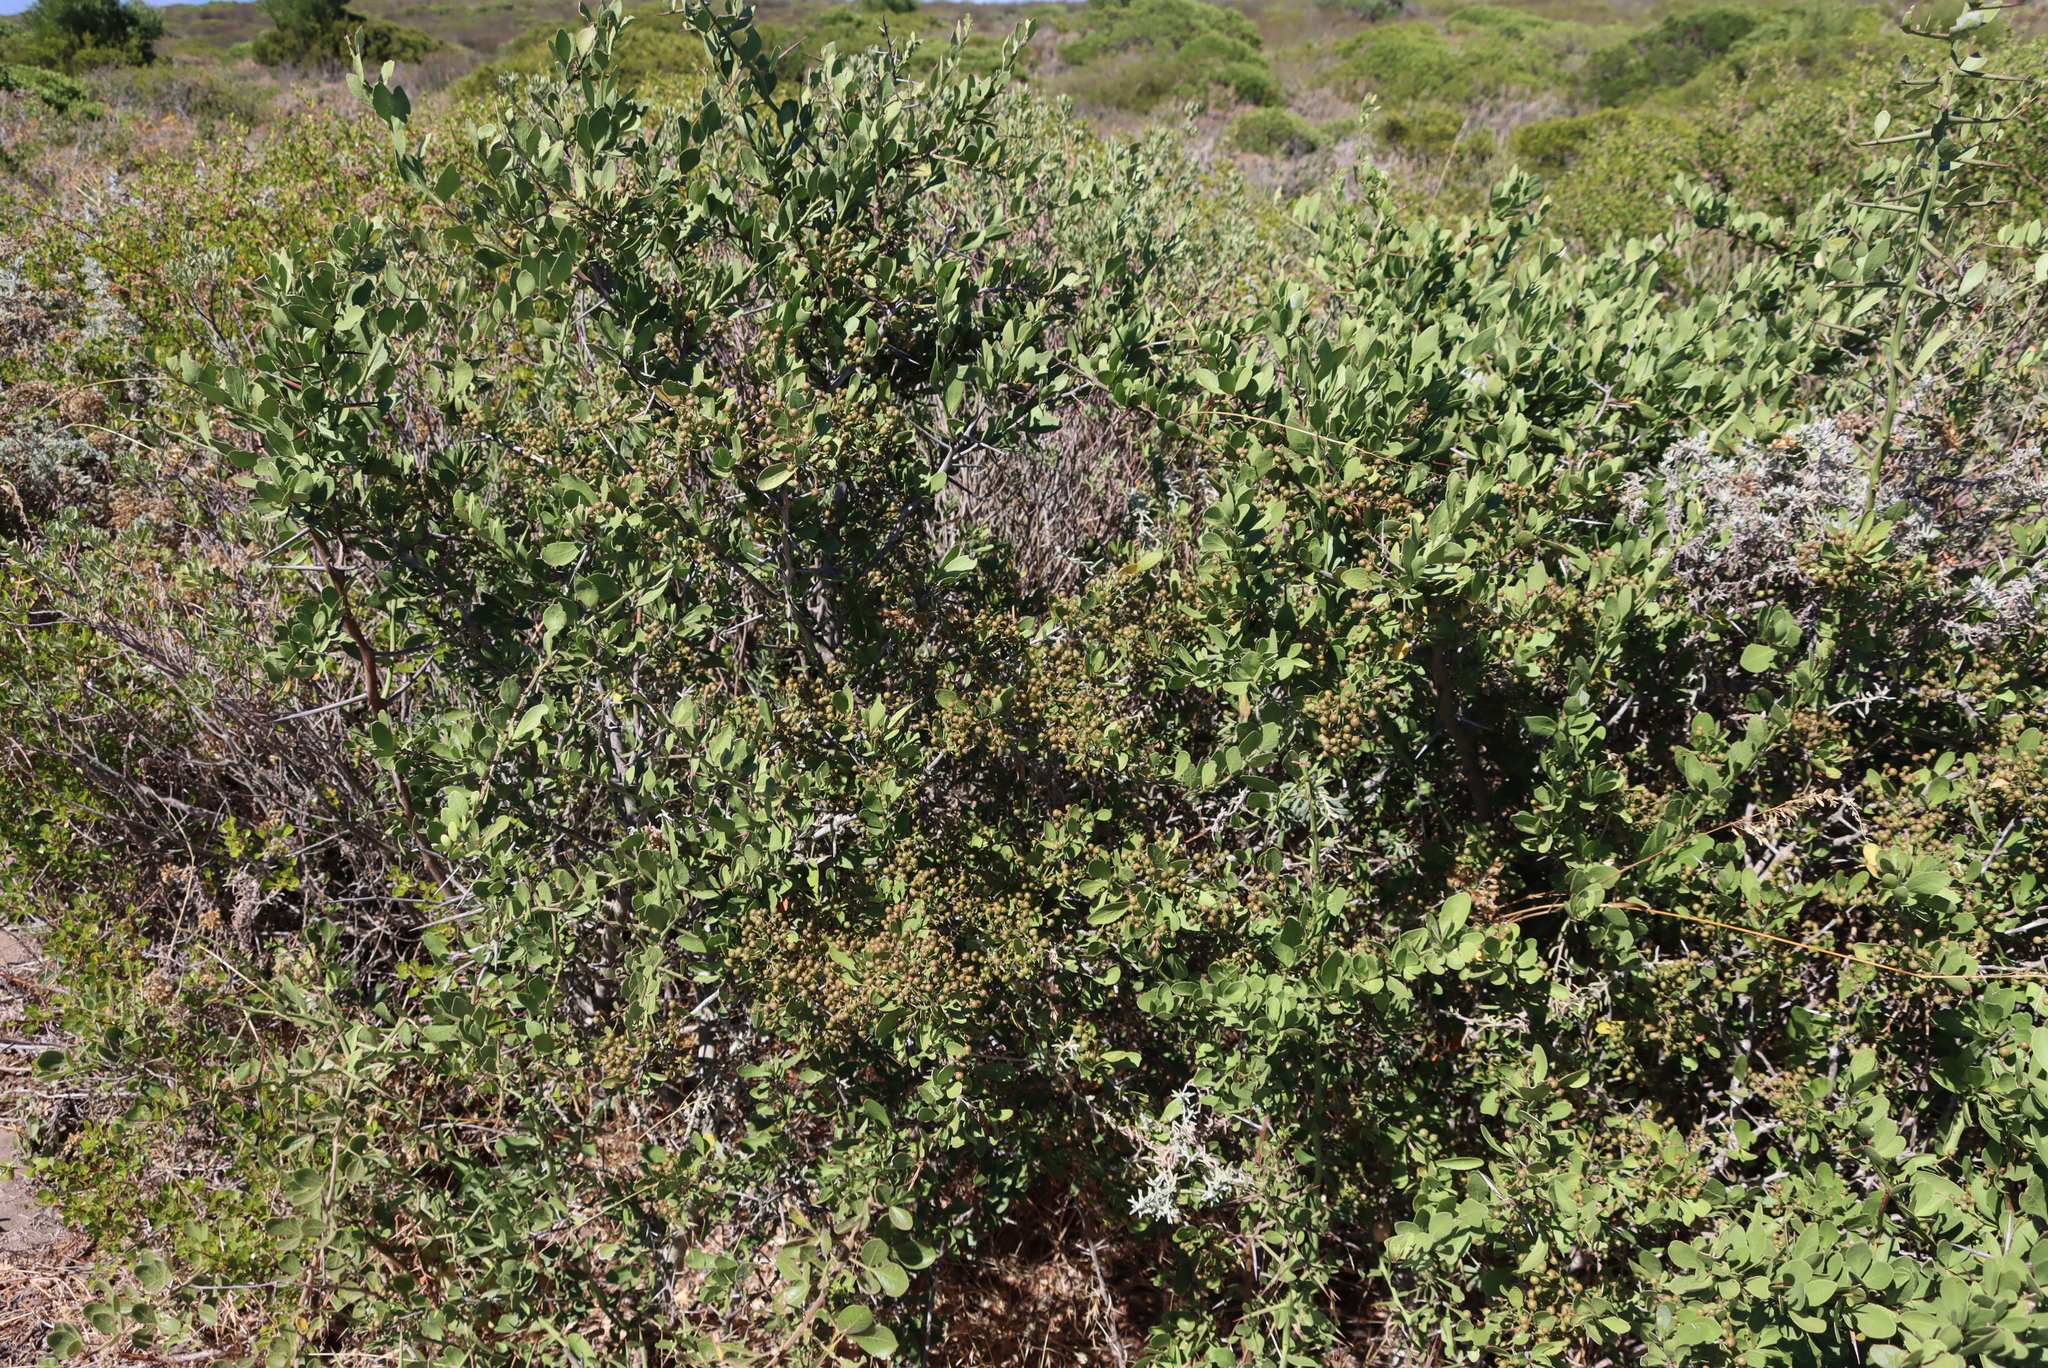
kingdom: Plantae
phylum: Tracheophyta
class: Magnoliopsida
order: Celastrales
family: Celastraceae
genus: Gymnosporia
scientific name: Gymnosporia buxifolia
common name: Common spike-thorn
